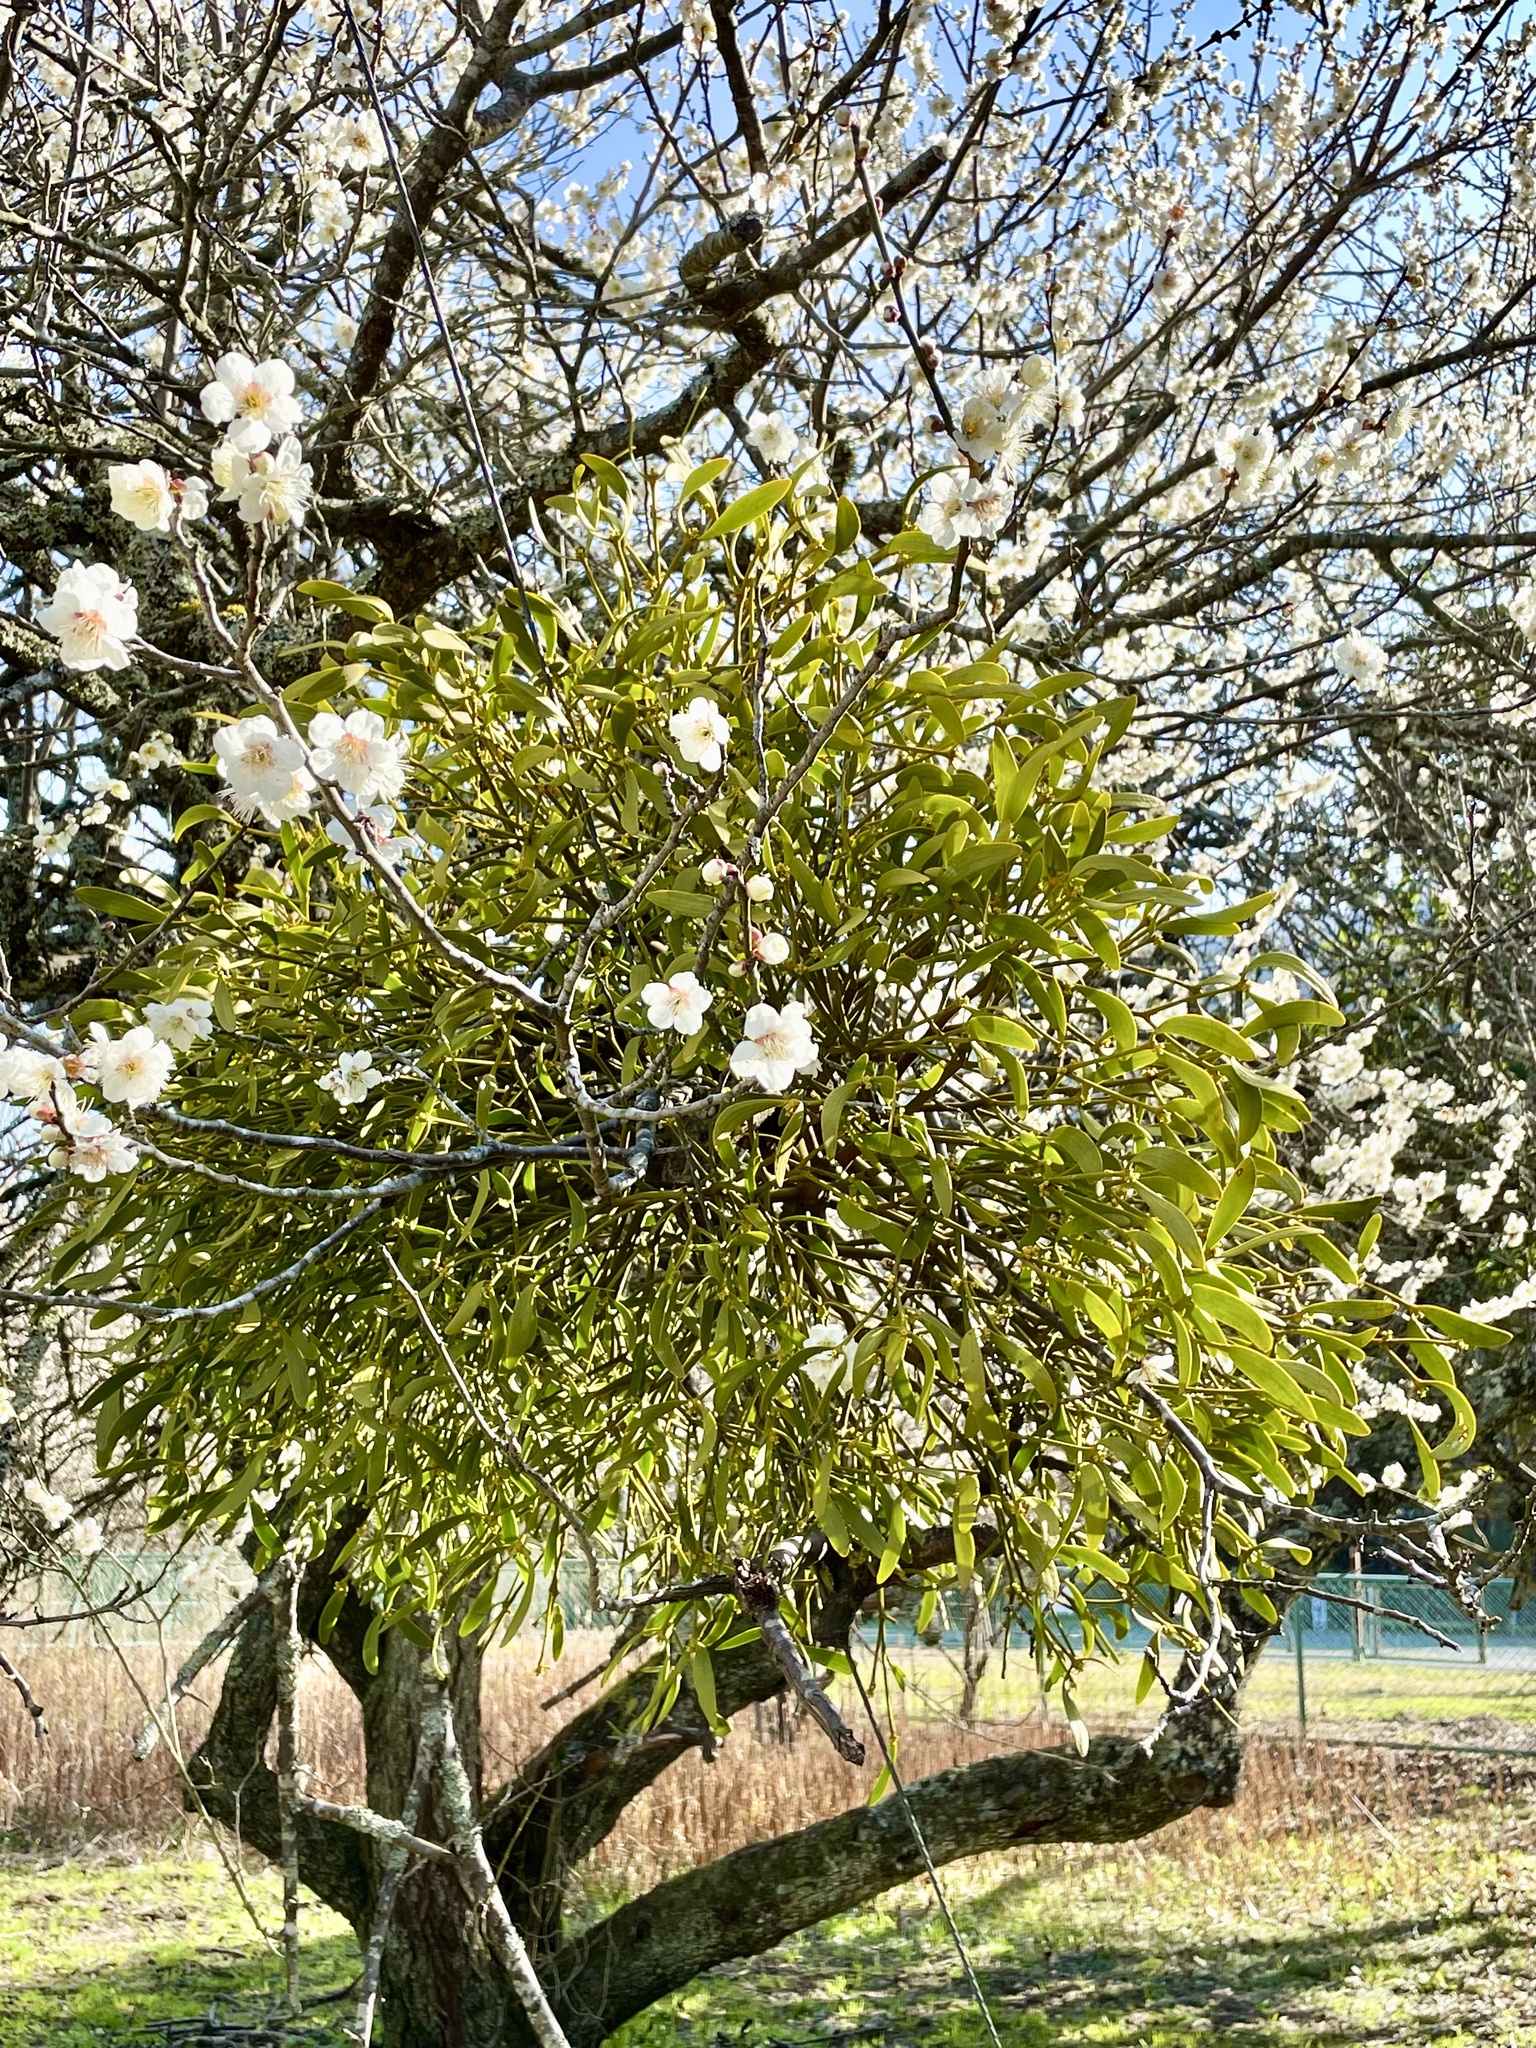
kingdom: Plantae
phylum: Tracheophyta
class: Magnoliopsida
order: Santalales
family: Viscaceae
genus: Viscum
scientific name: Viscum coloratum
